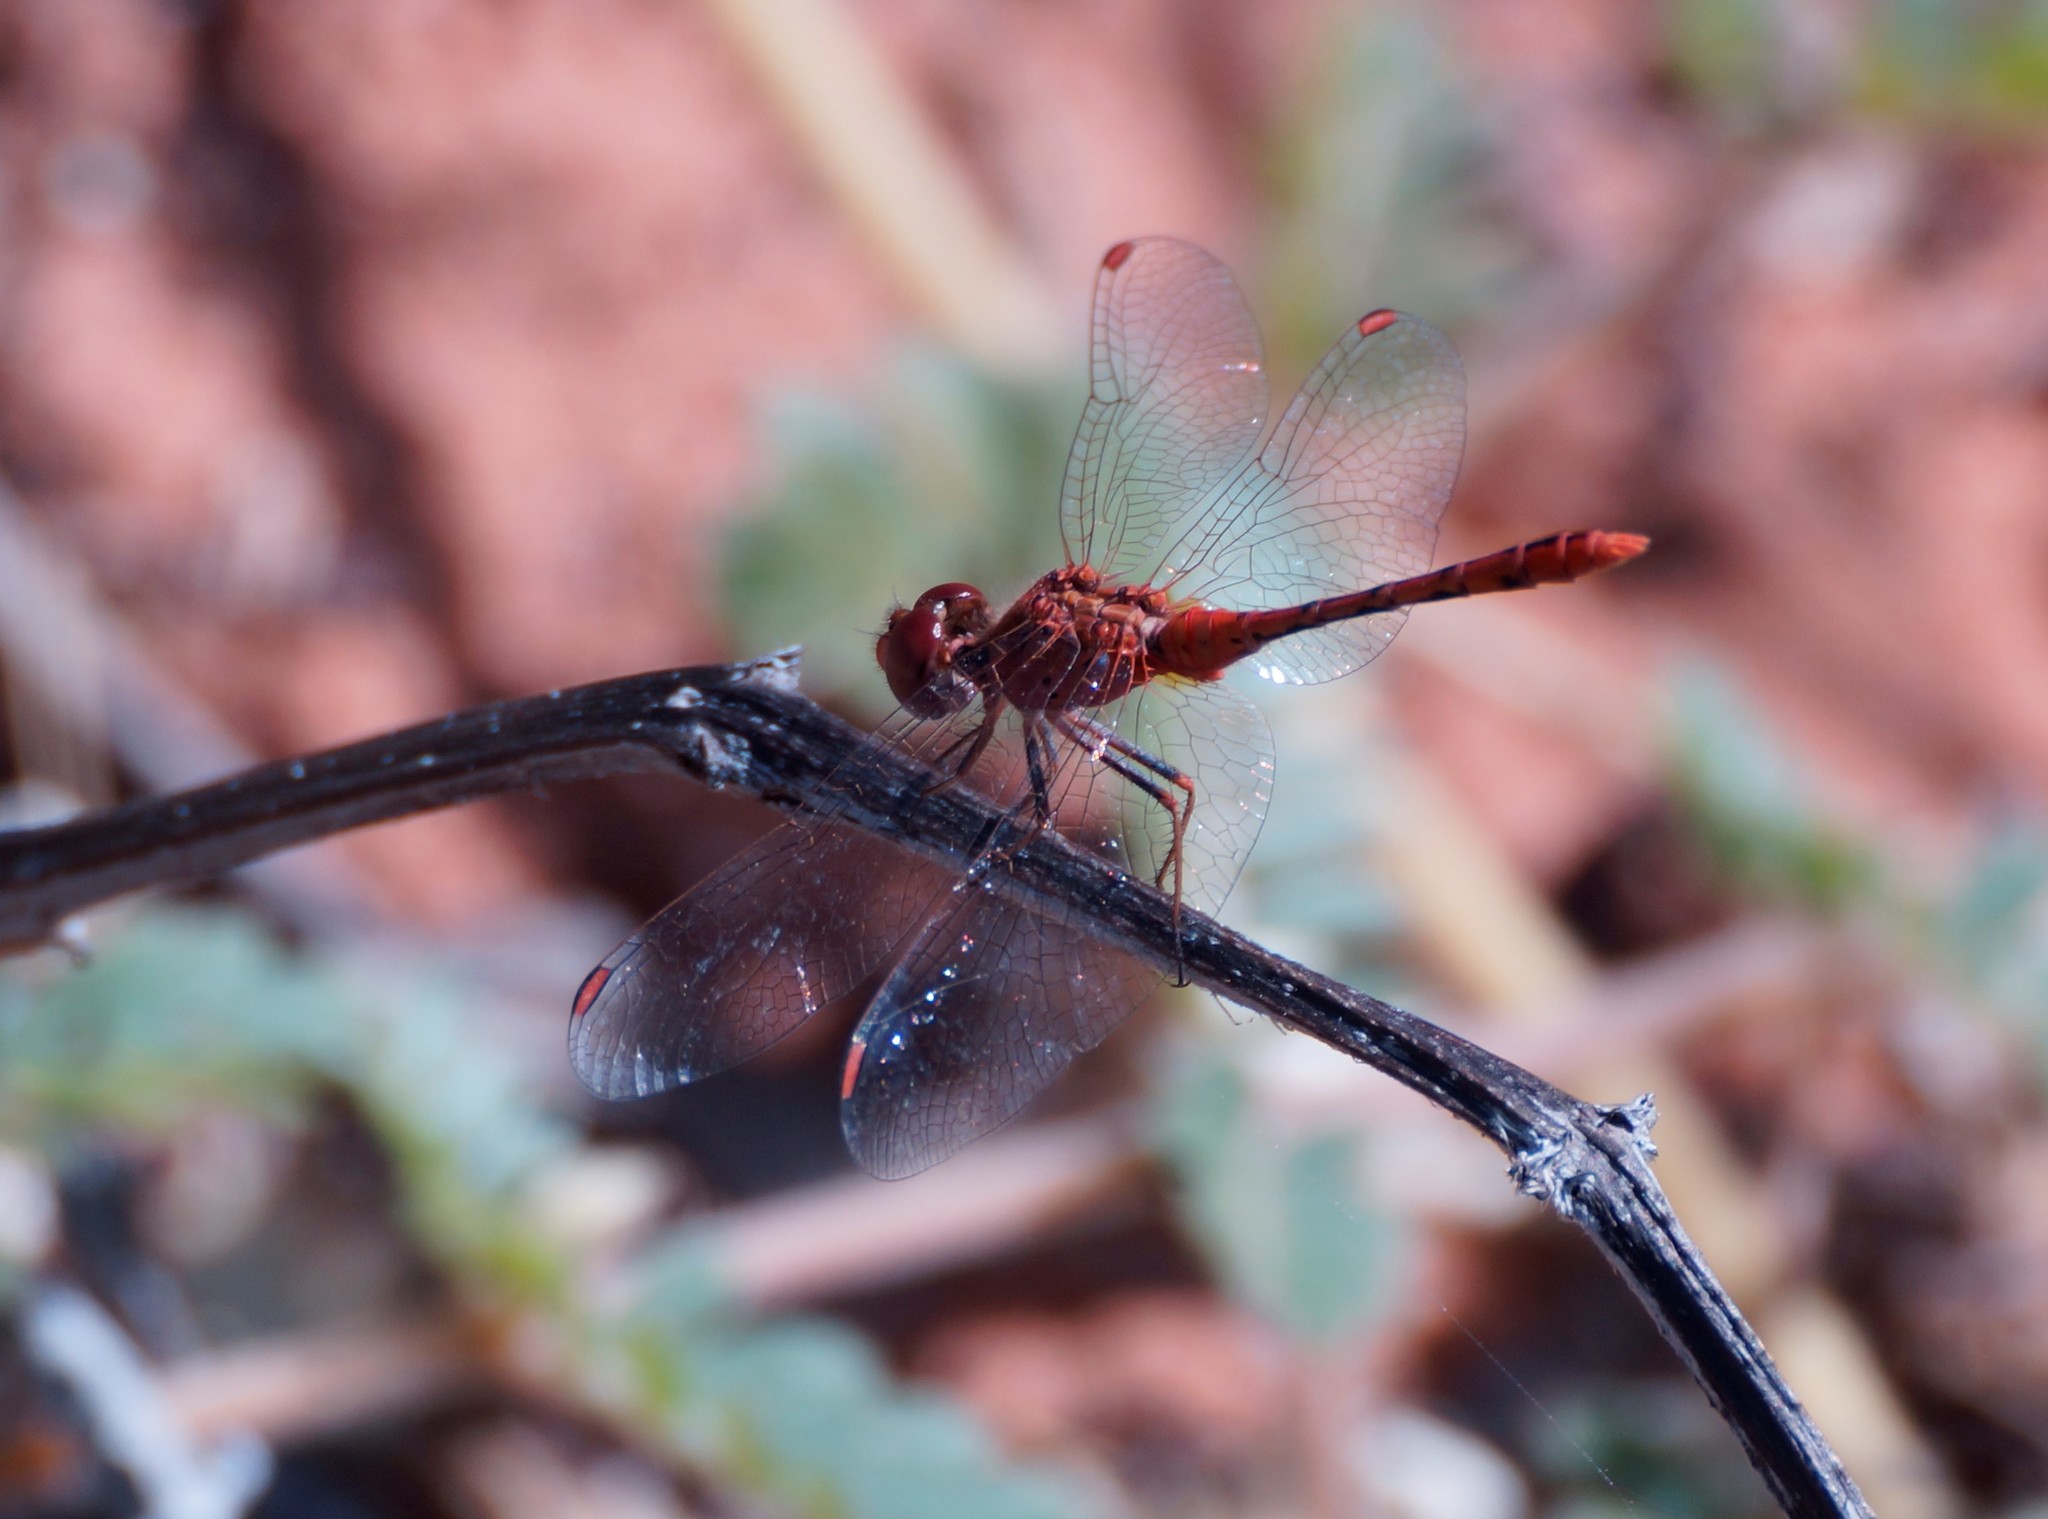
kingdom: Animalia
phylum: Arthropoda
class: Insecta
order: Odonata
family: Libellulidae
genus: Diplacodes
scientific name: Diplacodes bipunctata
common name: Red percher dragonfly
